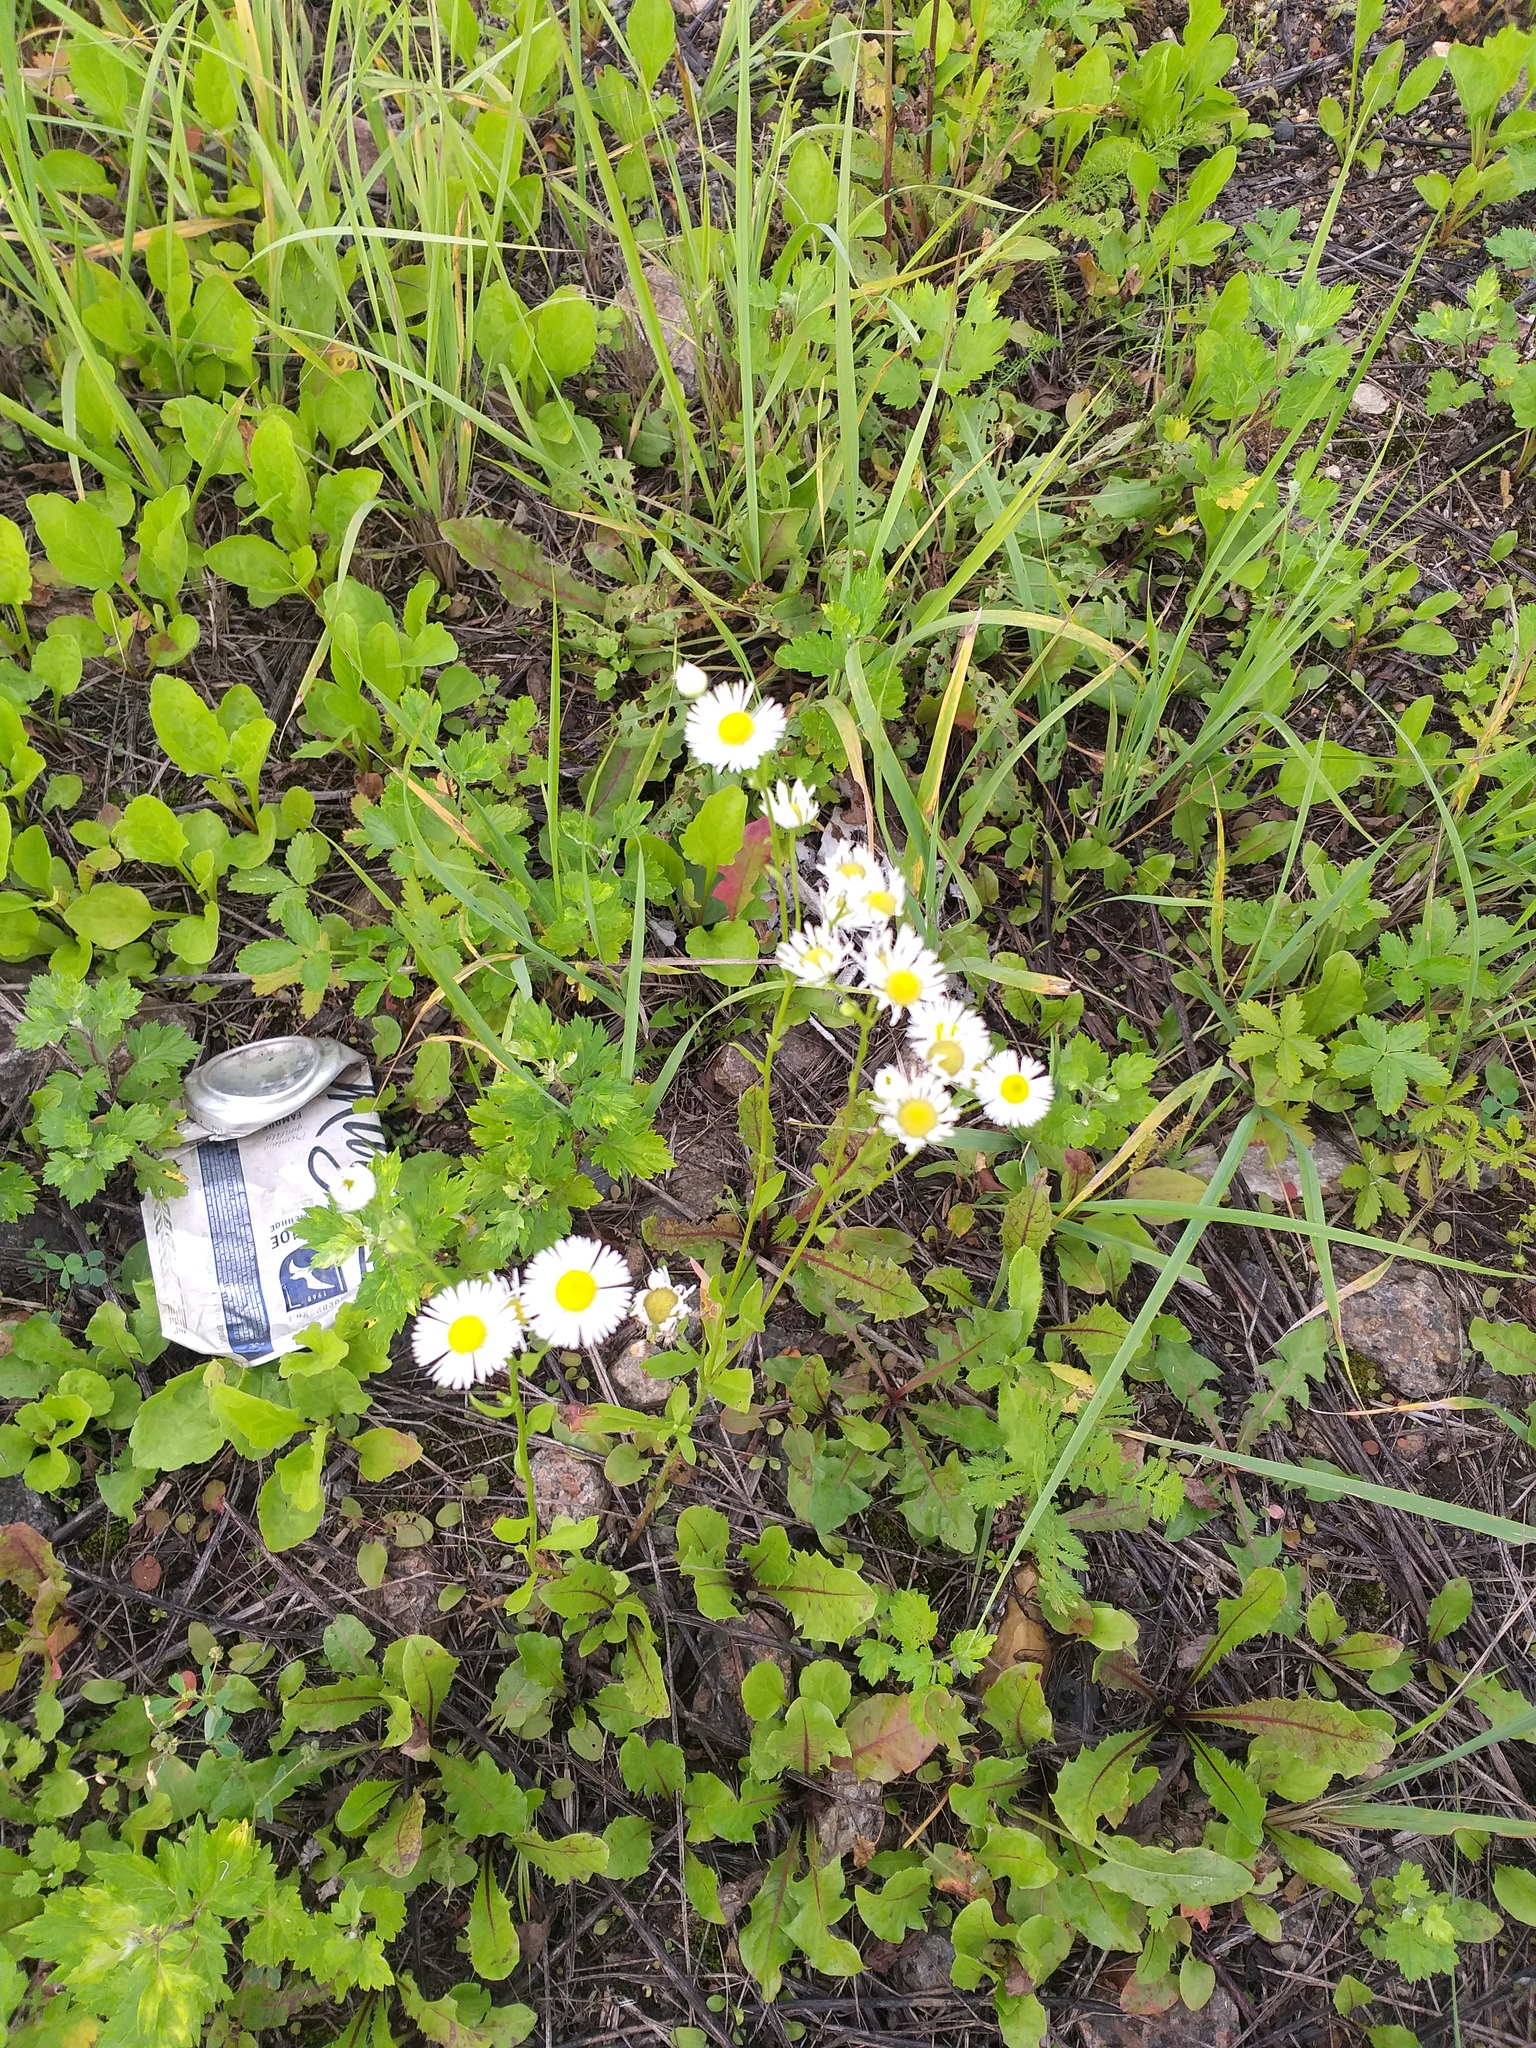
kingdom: Plantae
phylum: Tracheophyta
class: Magnoliopsida
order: Asterales
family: Asteraceae
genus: Erigeron
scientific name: Erigeron annuus
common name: Tall fleabane
